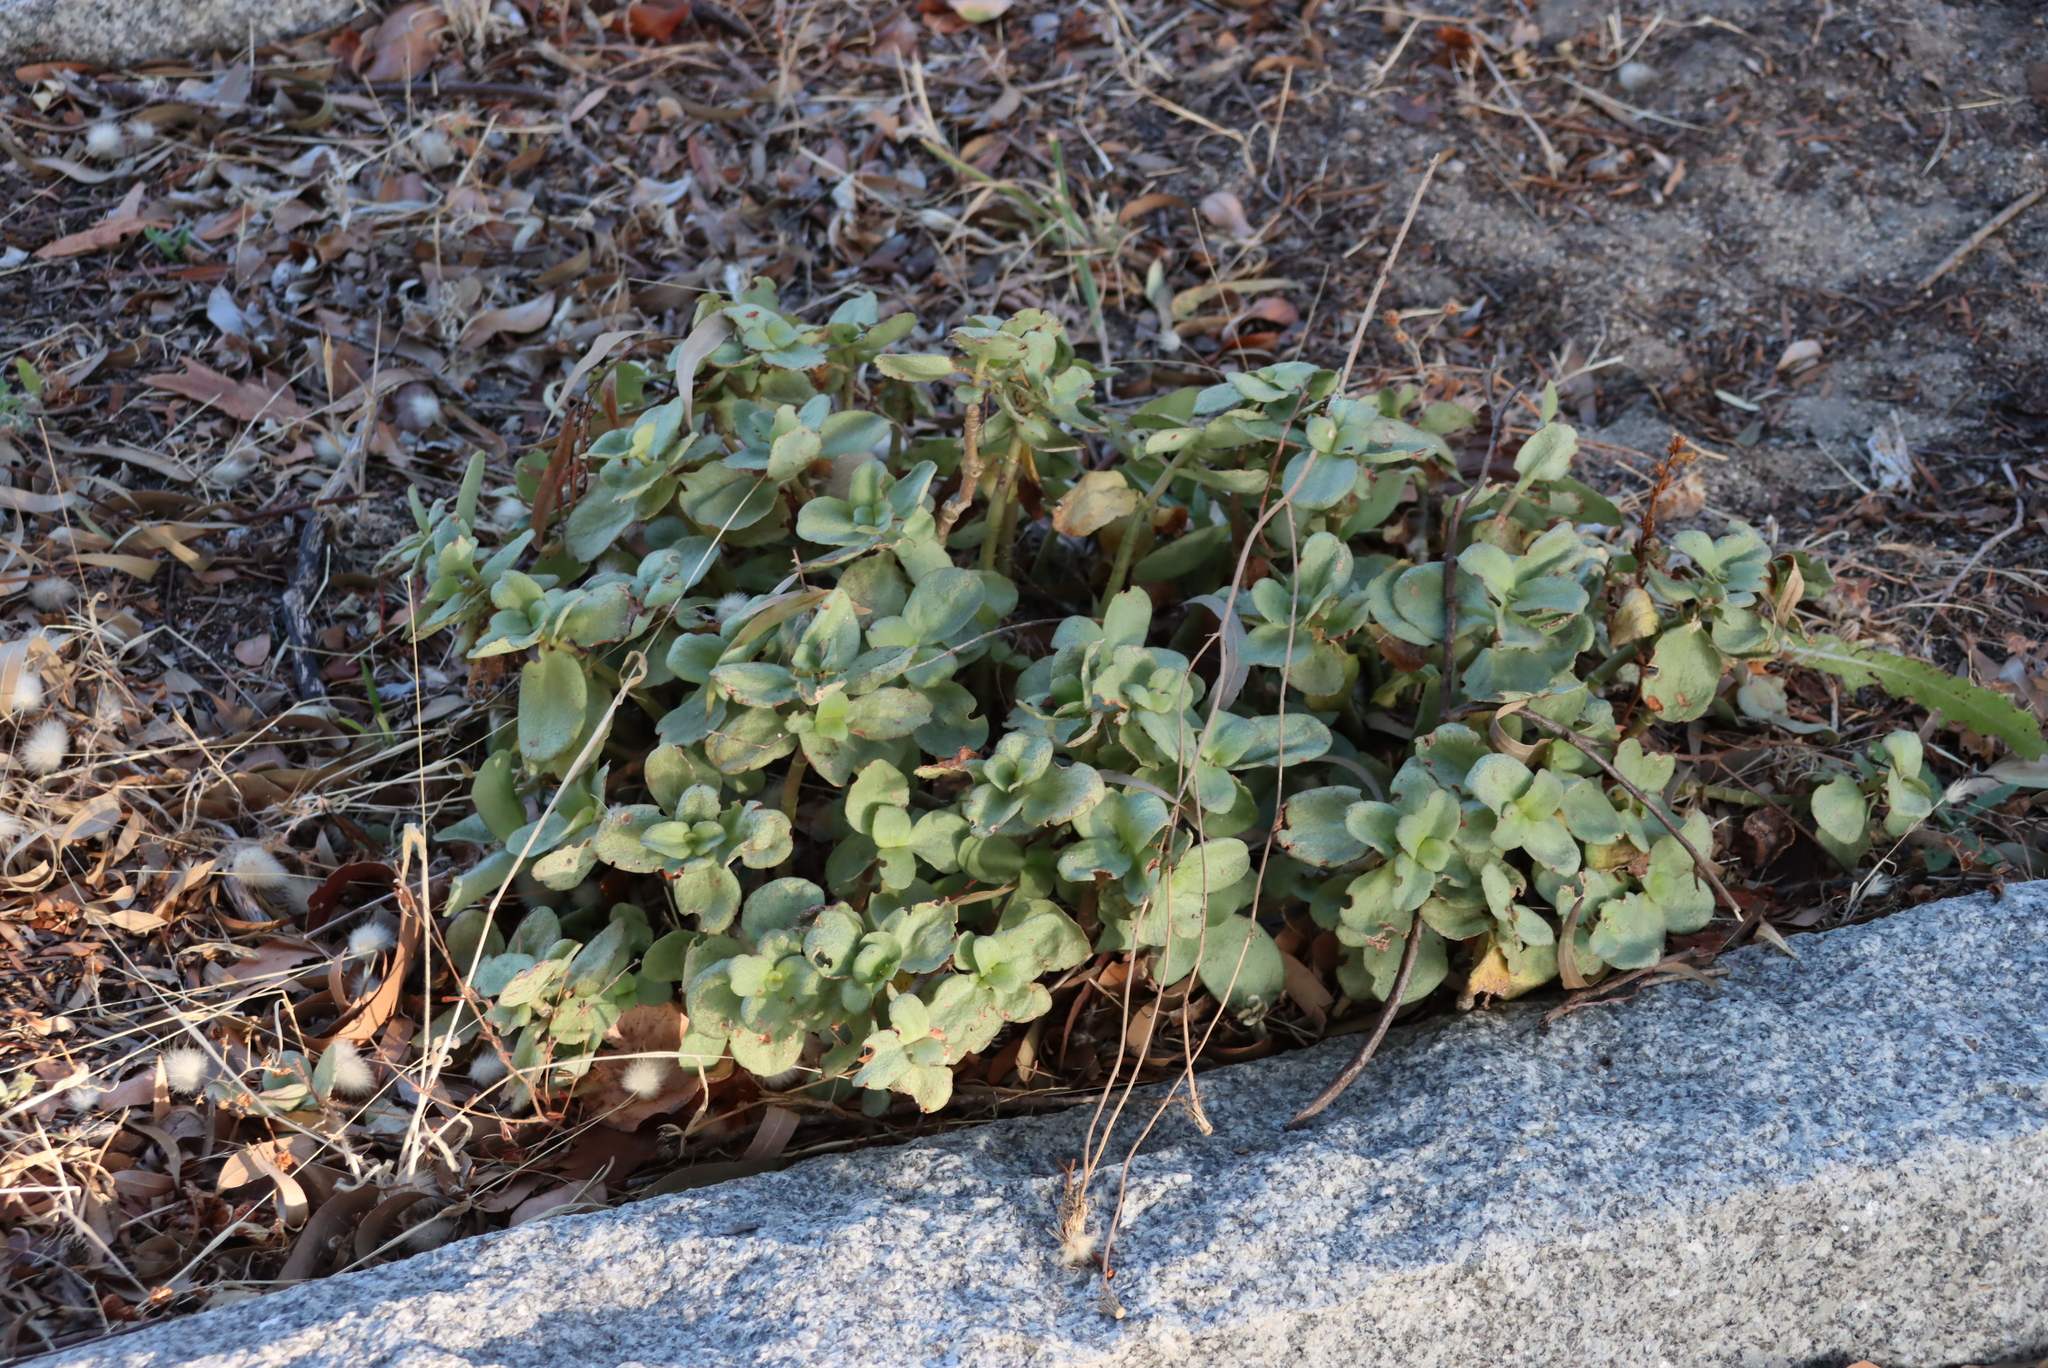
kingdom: Plantae
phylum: Tracheophyta
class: Magnoliopsida
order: Saxifragales
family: Crassulaceae
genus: Crassula
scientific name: Crassula multicava
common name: Cape province pygmyweed
